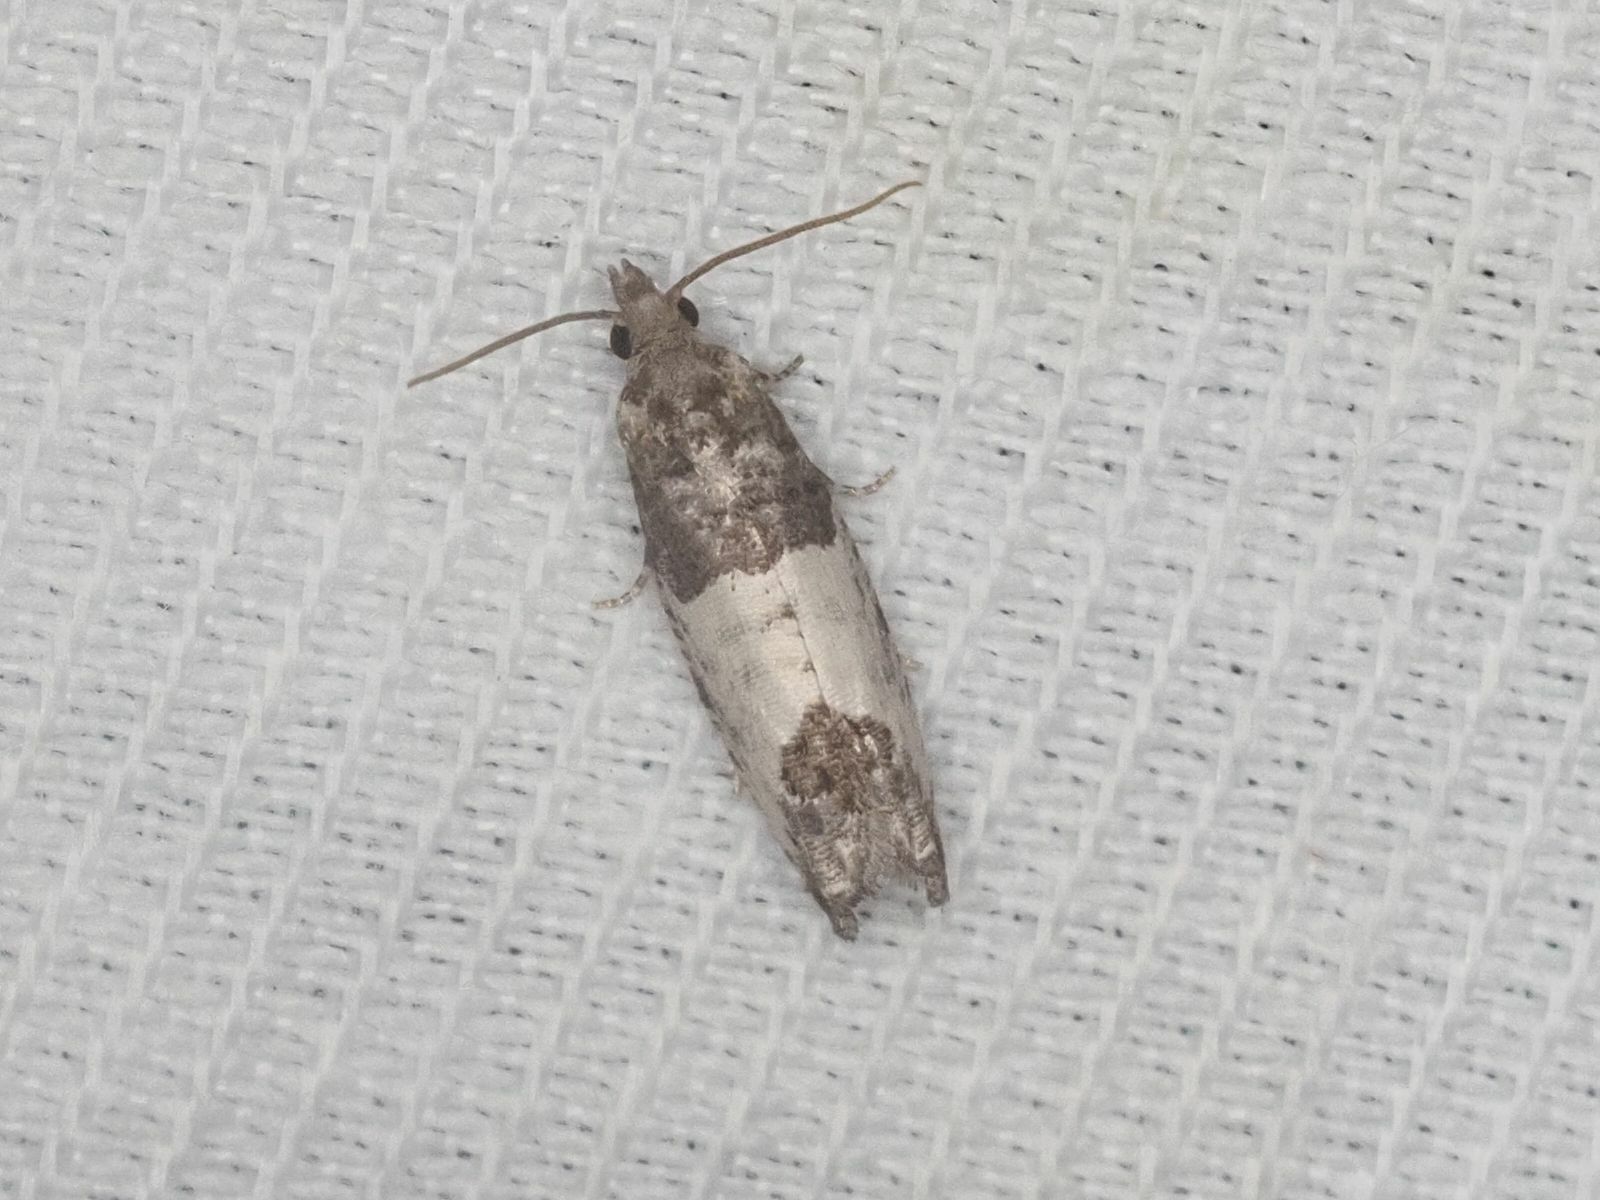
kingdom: Animalia
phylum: Arthropoda
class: Insecta
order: Lepidoptera
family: Tortricidae
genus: Spilonota
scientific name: Spilonota ocellana
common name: Bud moth
